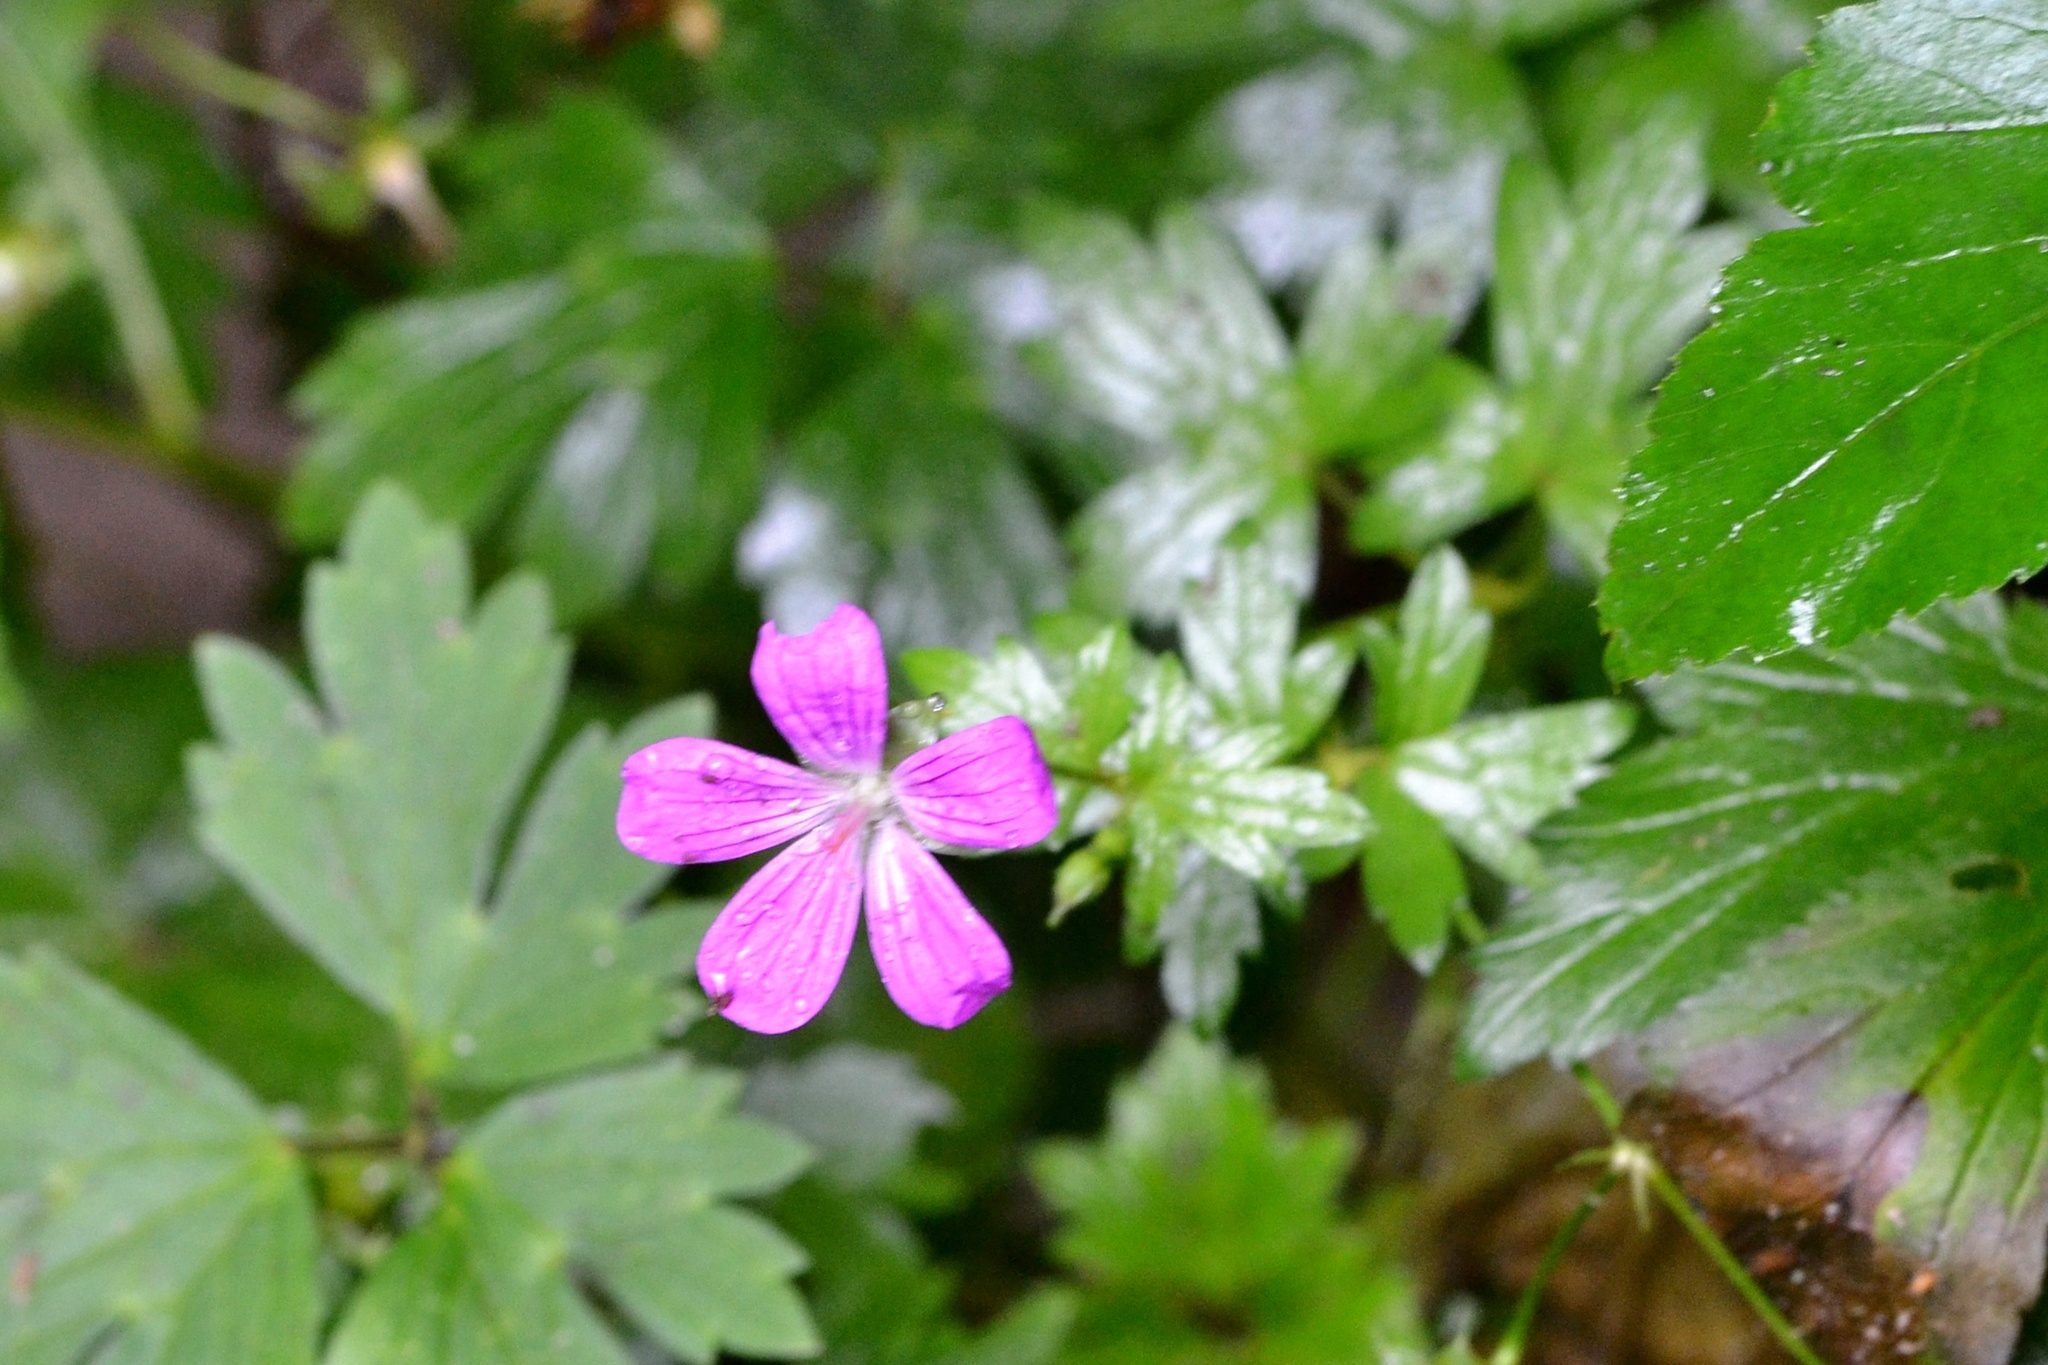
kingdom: Plantae
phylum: Tracheophyta
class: Magnoliopsida
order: Geraniales
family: Geraniaceae
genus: Geranium
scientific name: Geranium palustre
